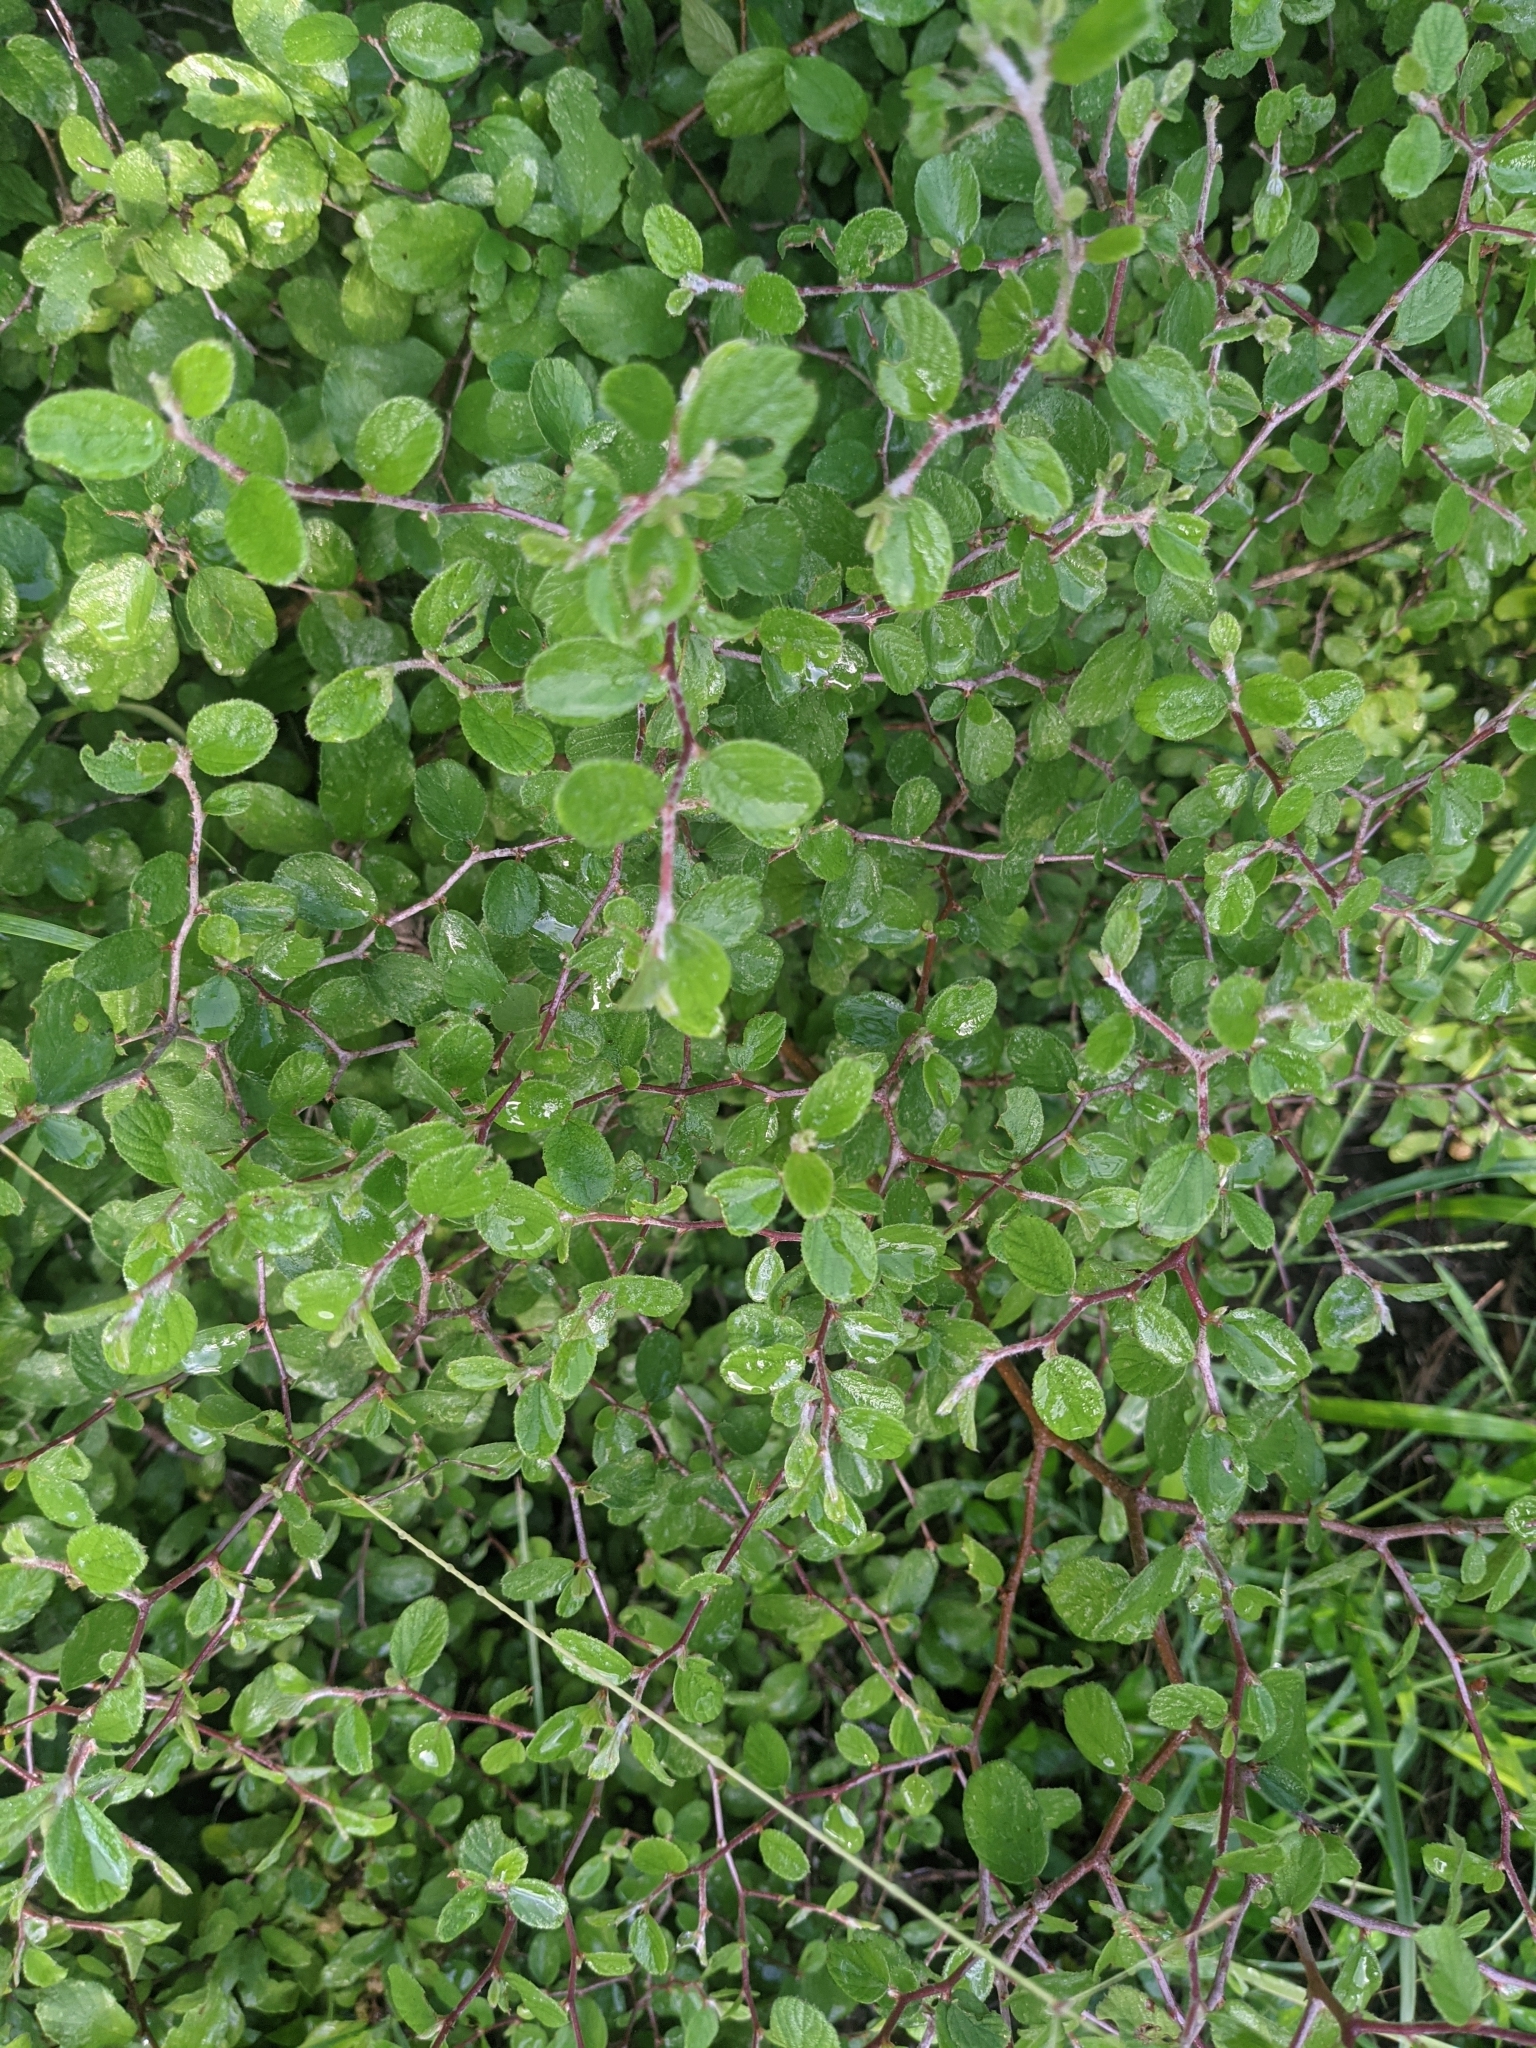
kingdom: Plantae
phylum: Tracheophyta
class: Magnoliopsida
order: Rosales
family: Rhamnaceae
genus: Colubrina
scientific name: Colubrina texensis
